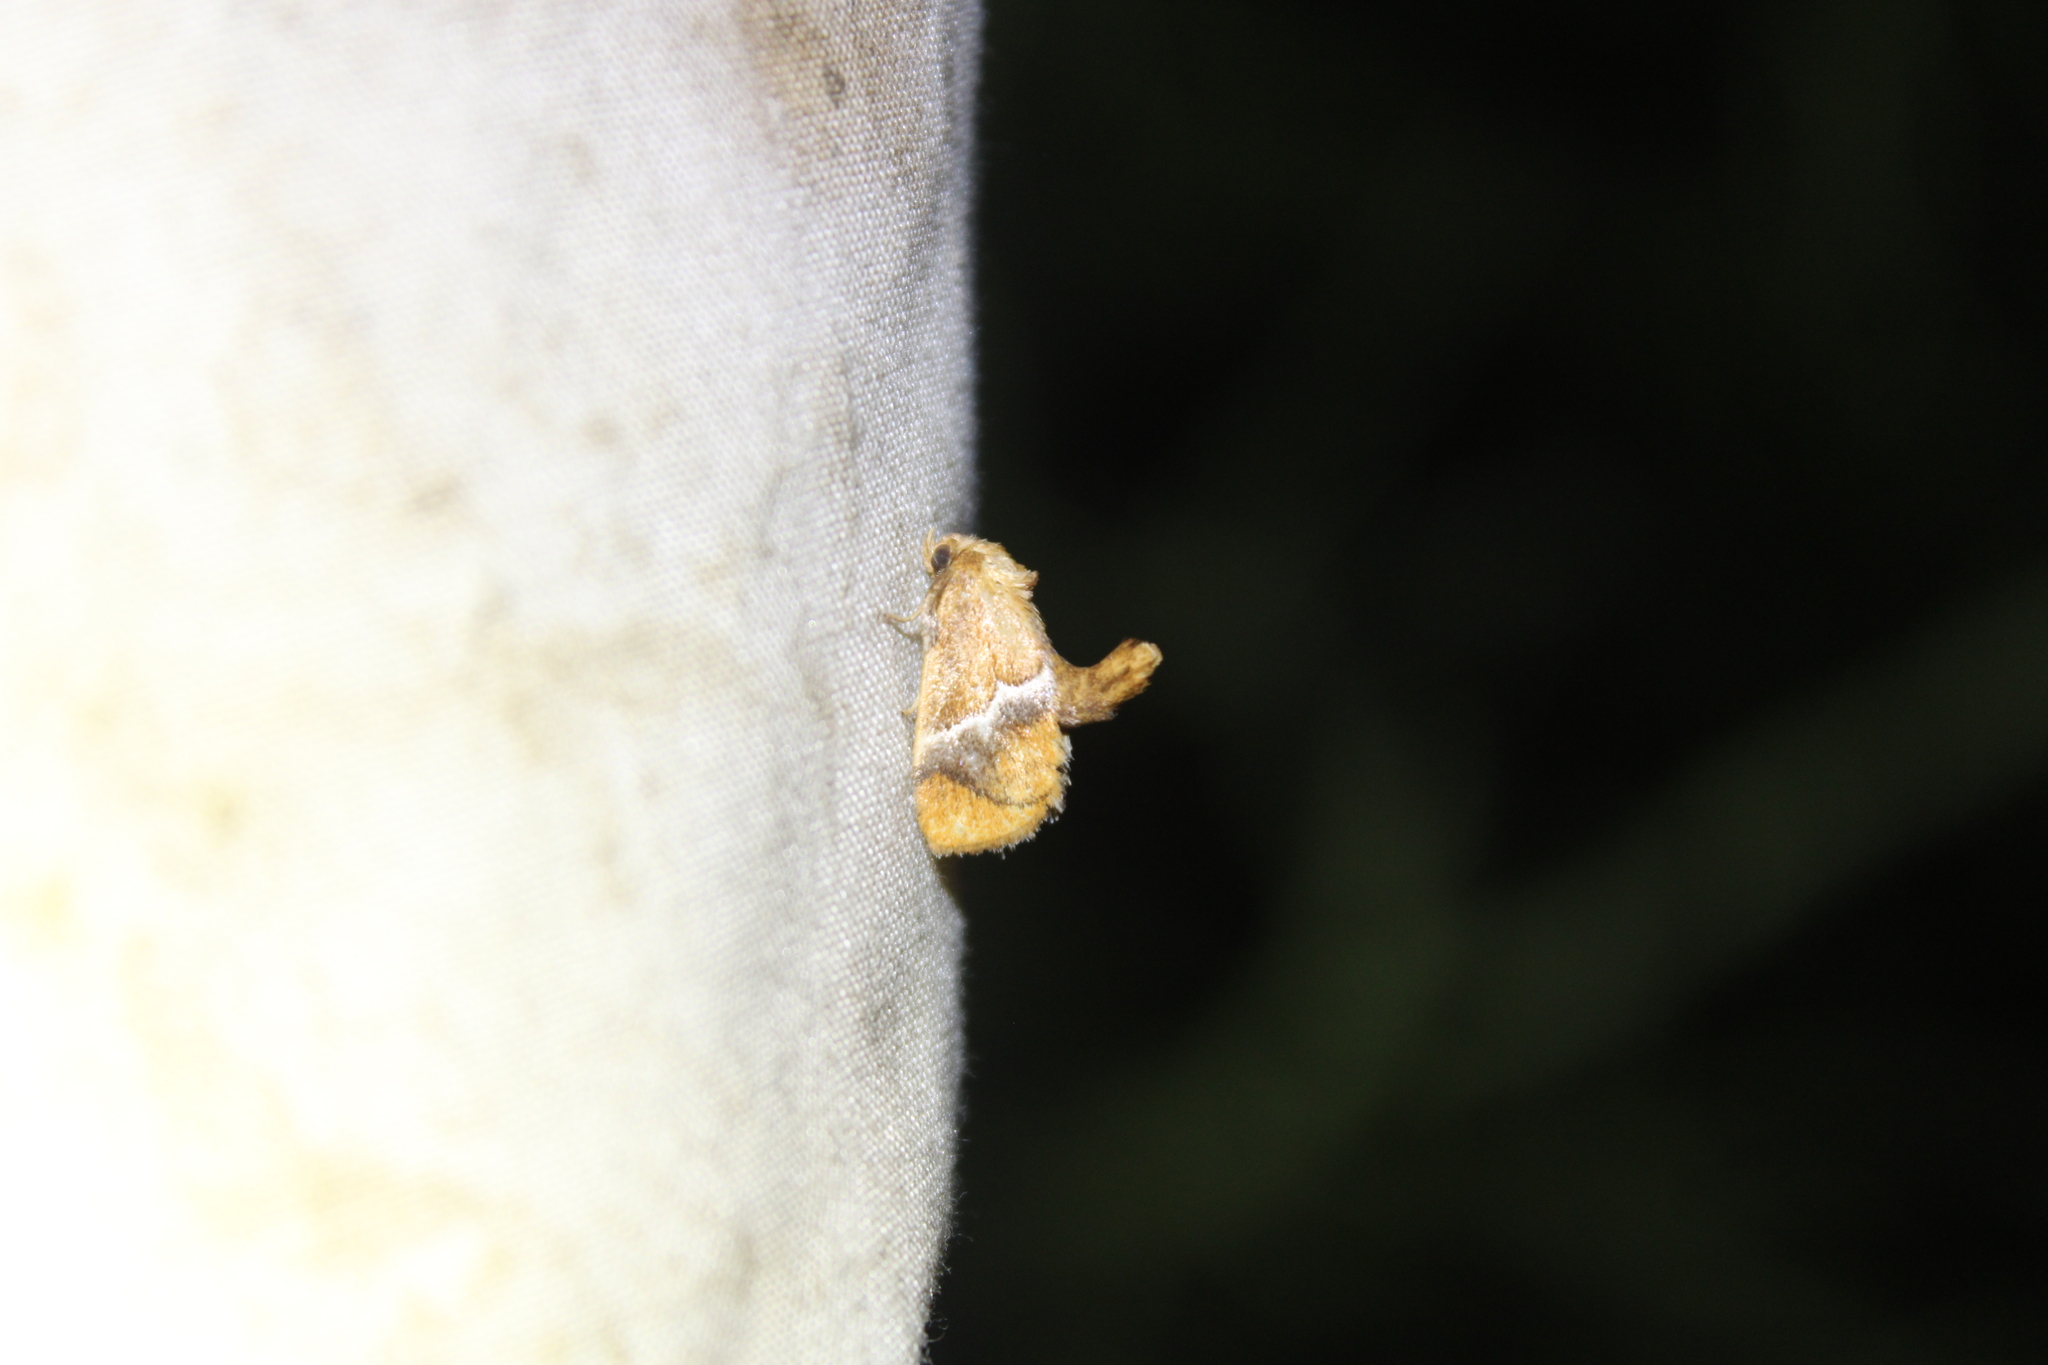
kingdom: Animalia
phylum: Arthropoda
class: Insecta
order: Lepidoptera
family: Limacodidae
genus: Lithacodes
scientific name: Lithacodes fasciola
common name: Yellow-shouldered slug moth
